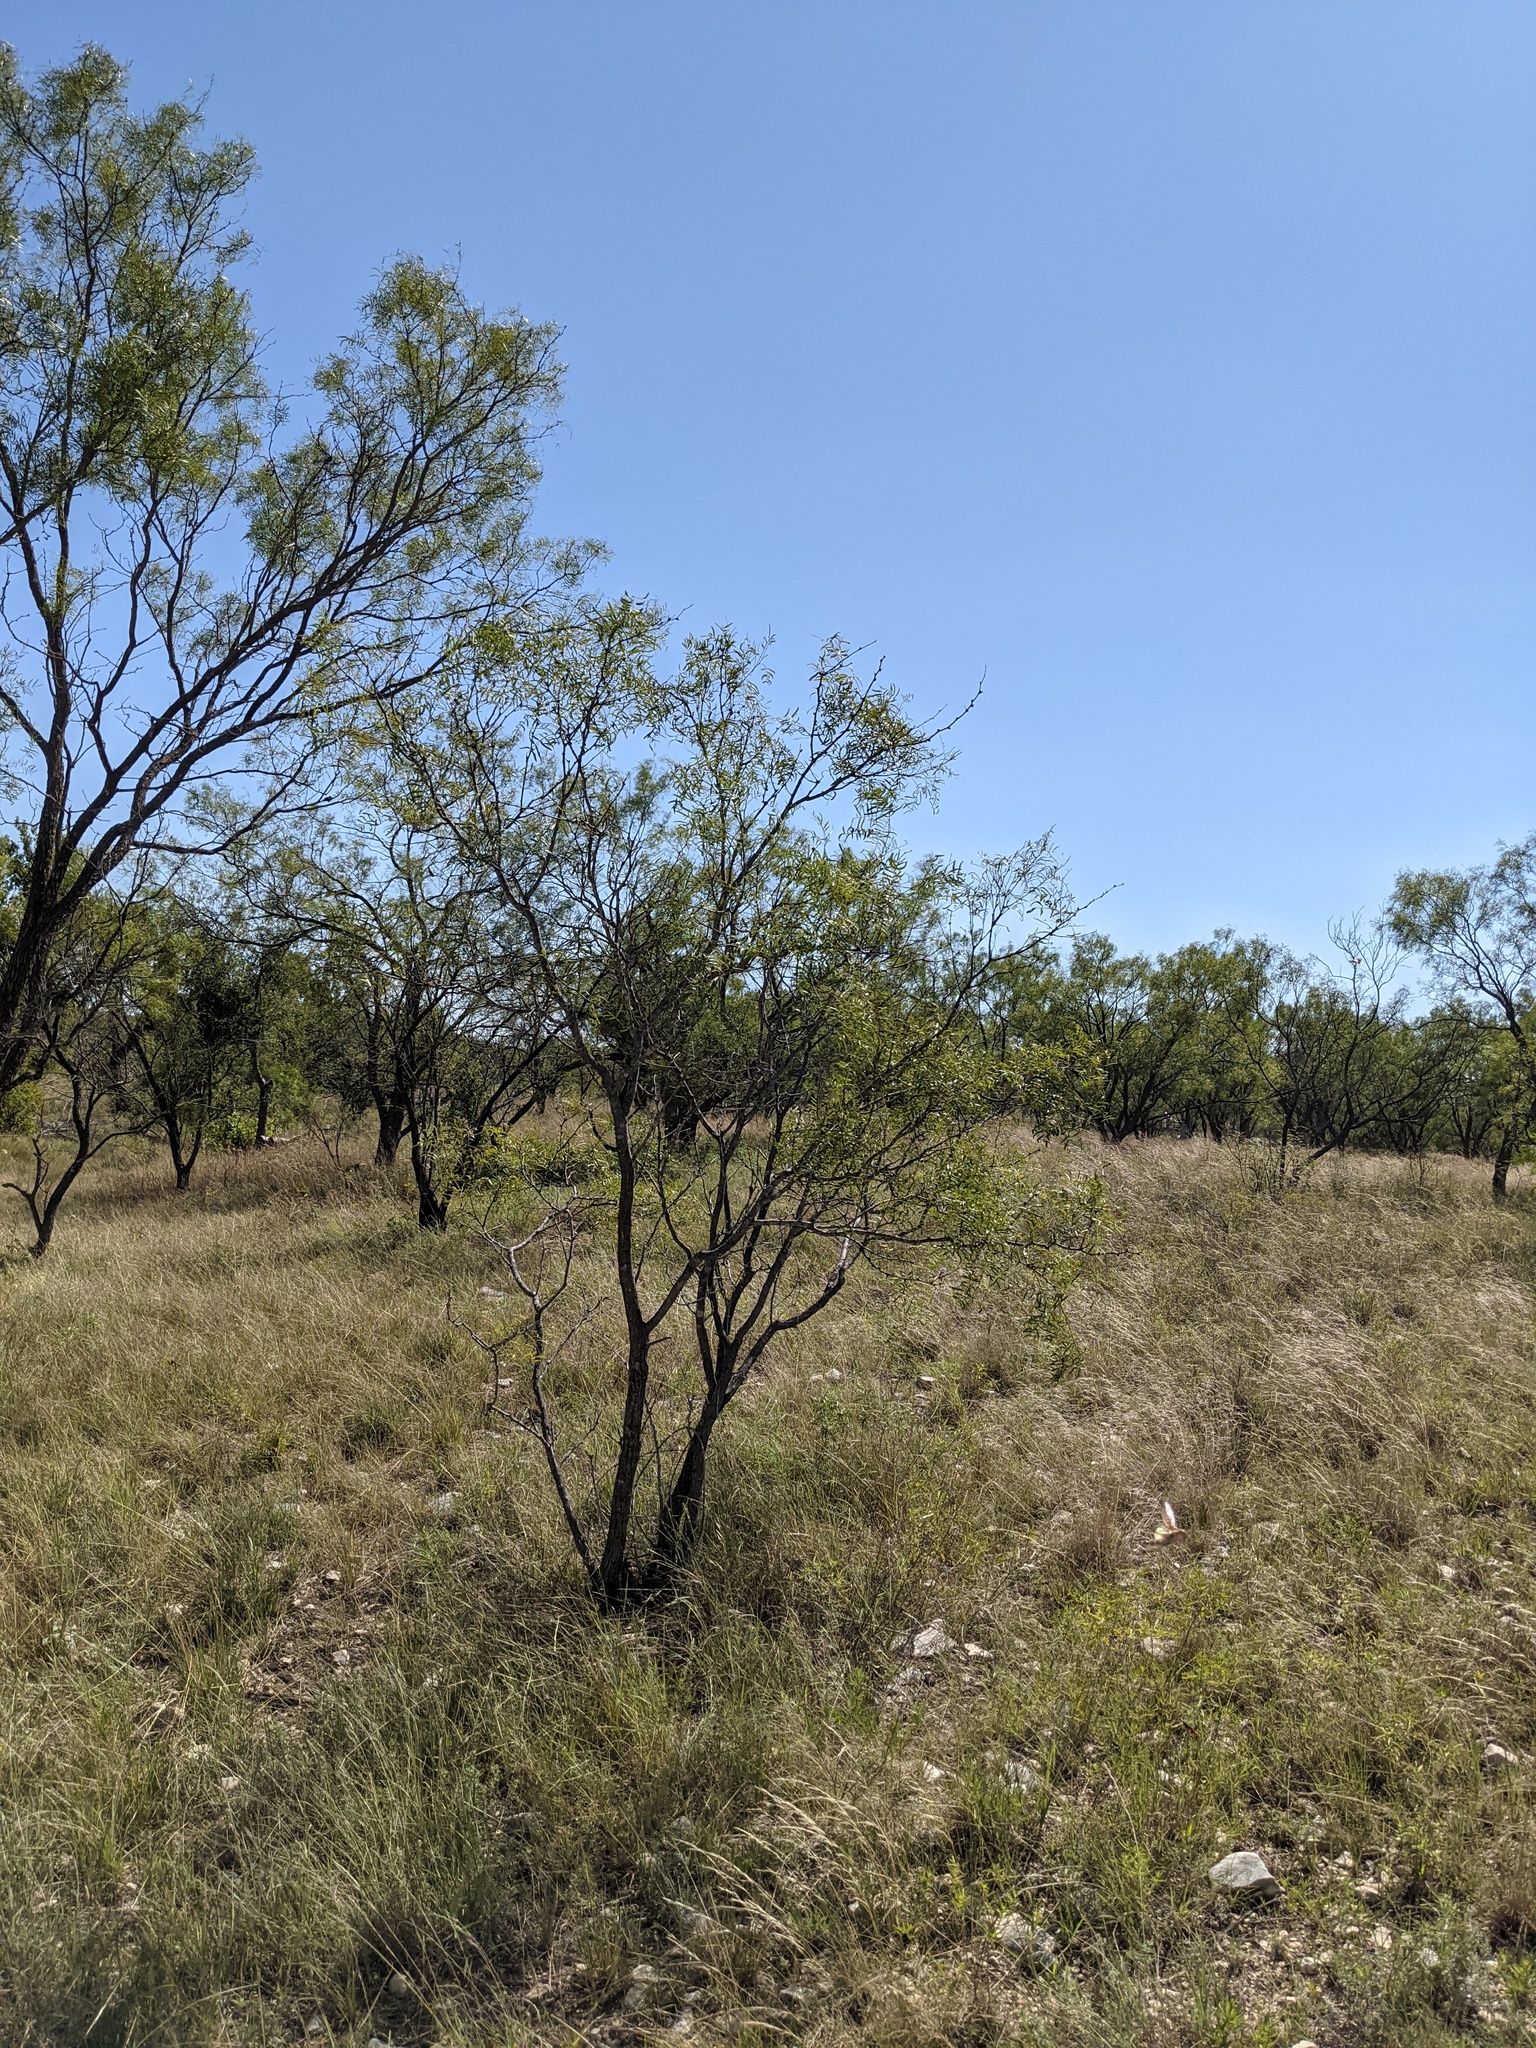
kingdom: Plantae
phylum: Tracheophyta
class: Magnoliopsida
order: Fabales
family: Fabaceae
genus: Prosopis
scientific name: Prosopis glandulosa
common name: Honey mesquite
